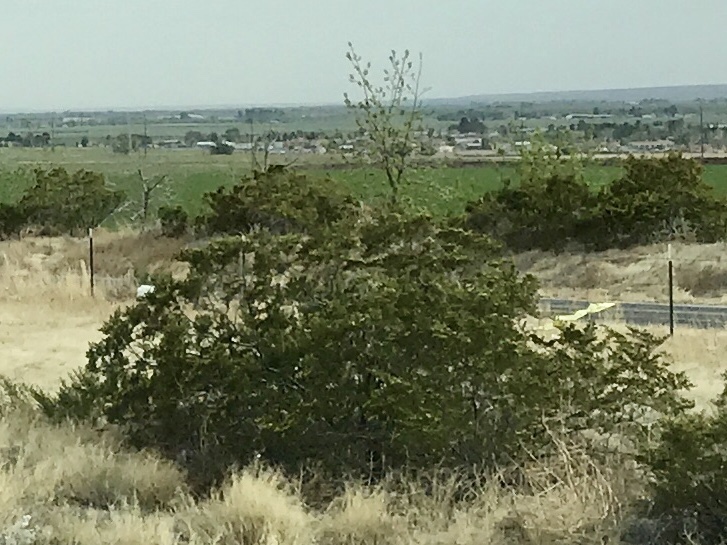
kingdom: Plantae
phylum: Tracheophyta
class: Magnoliopsida
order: Zygophyllales
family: Zygophyllaceae
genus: Larrea
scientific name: Larrea tridentata
